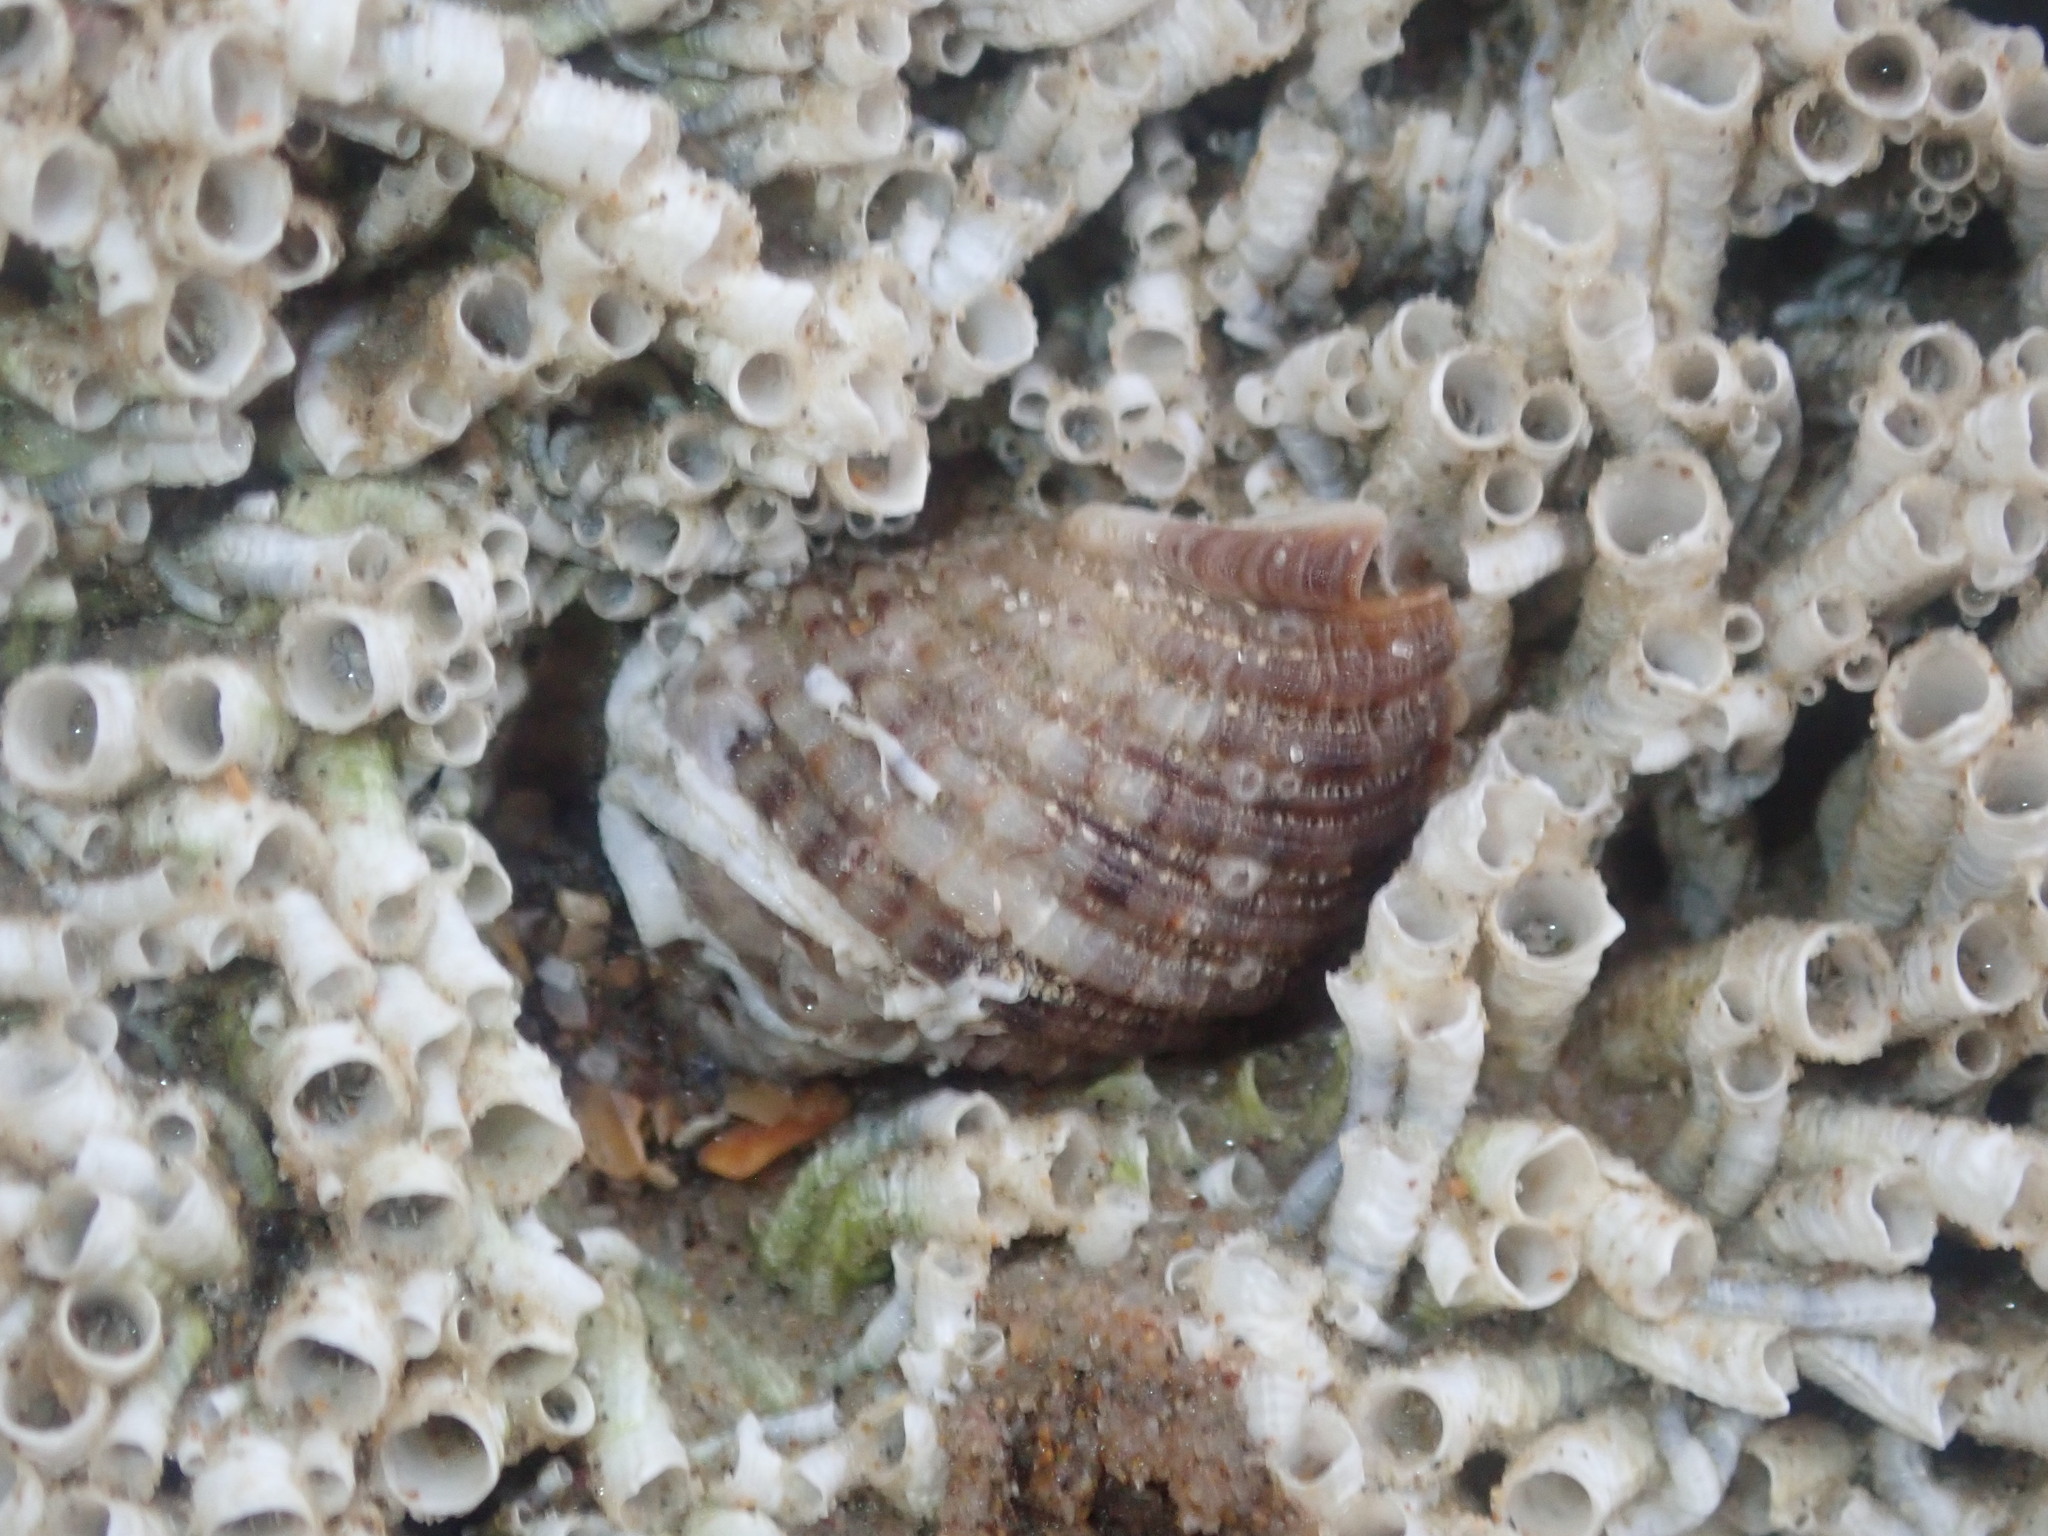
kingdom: Animalia
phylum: Mollusca
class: Gastropoda
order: Neogastropoda
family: Muricidae
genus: Dicathais
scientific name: Dicathais orbita
